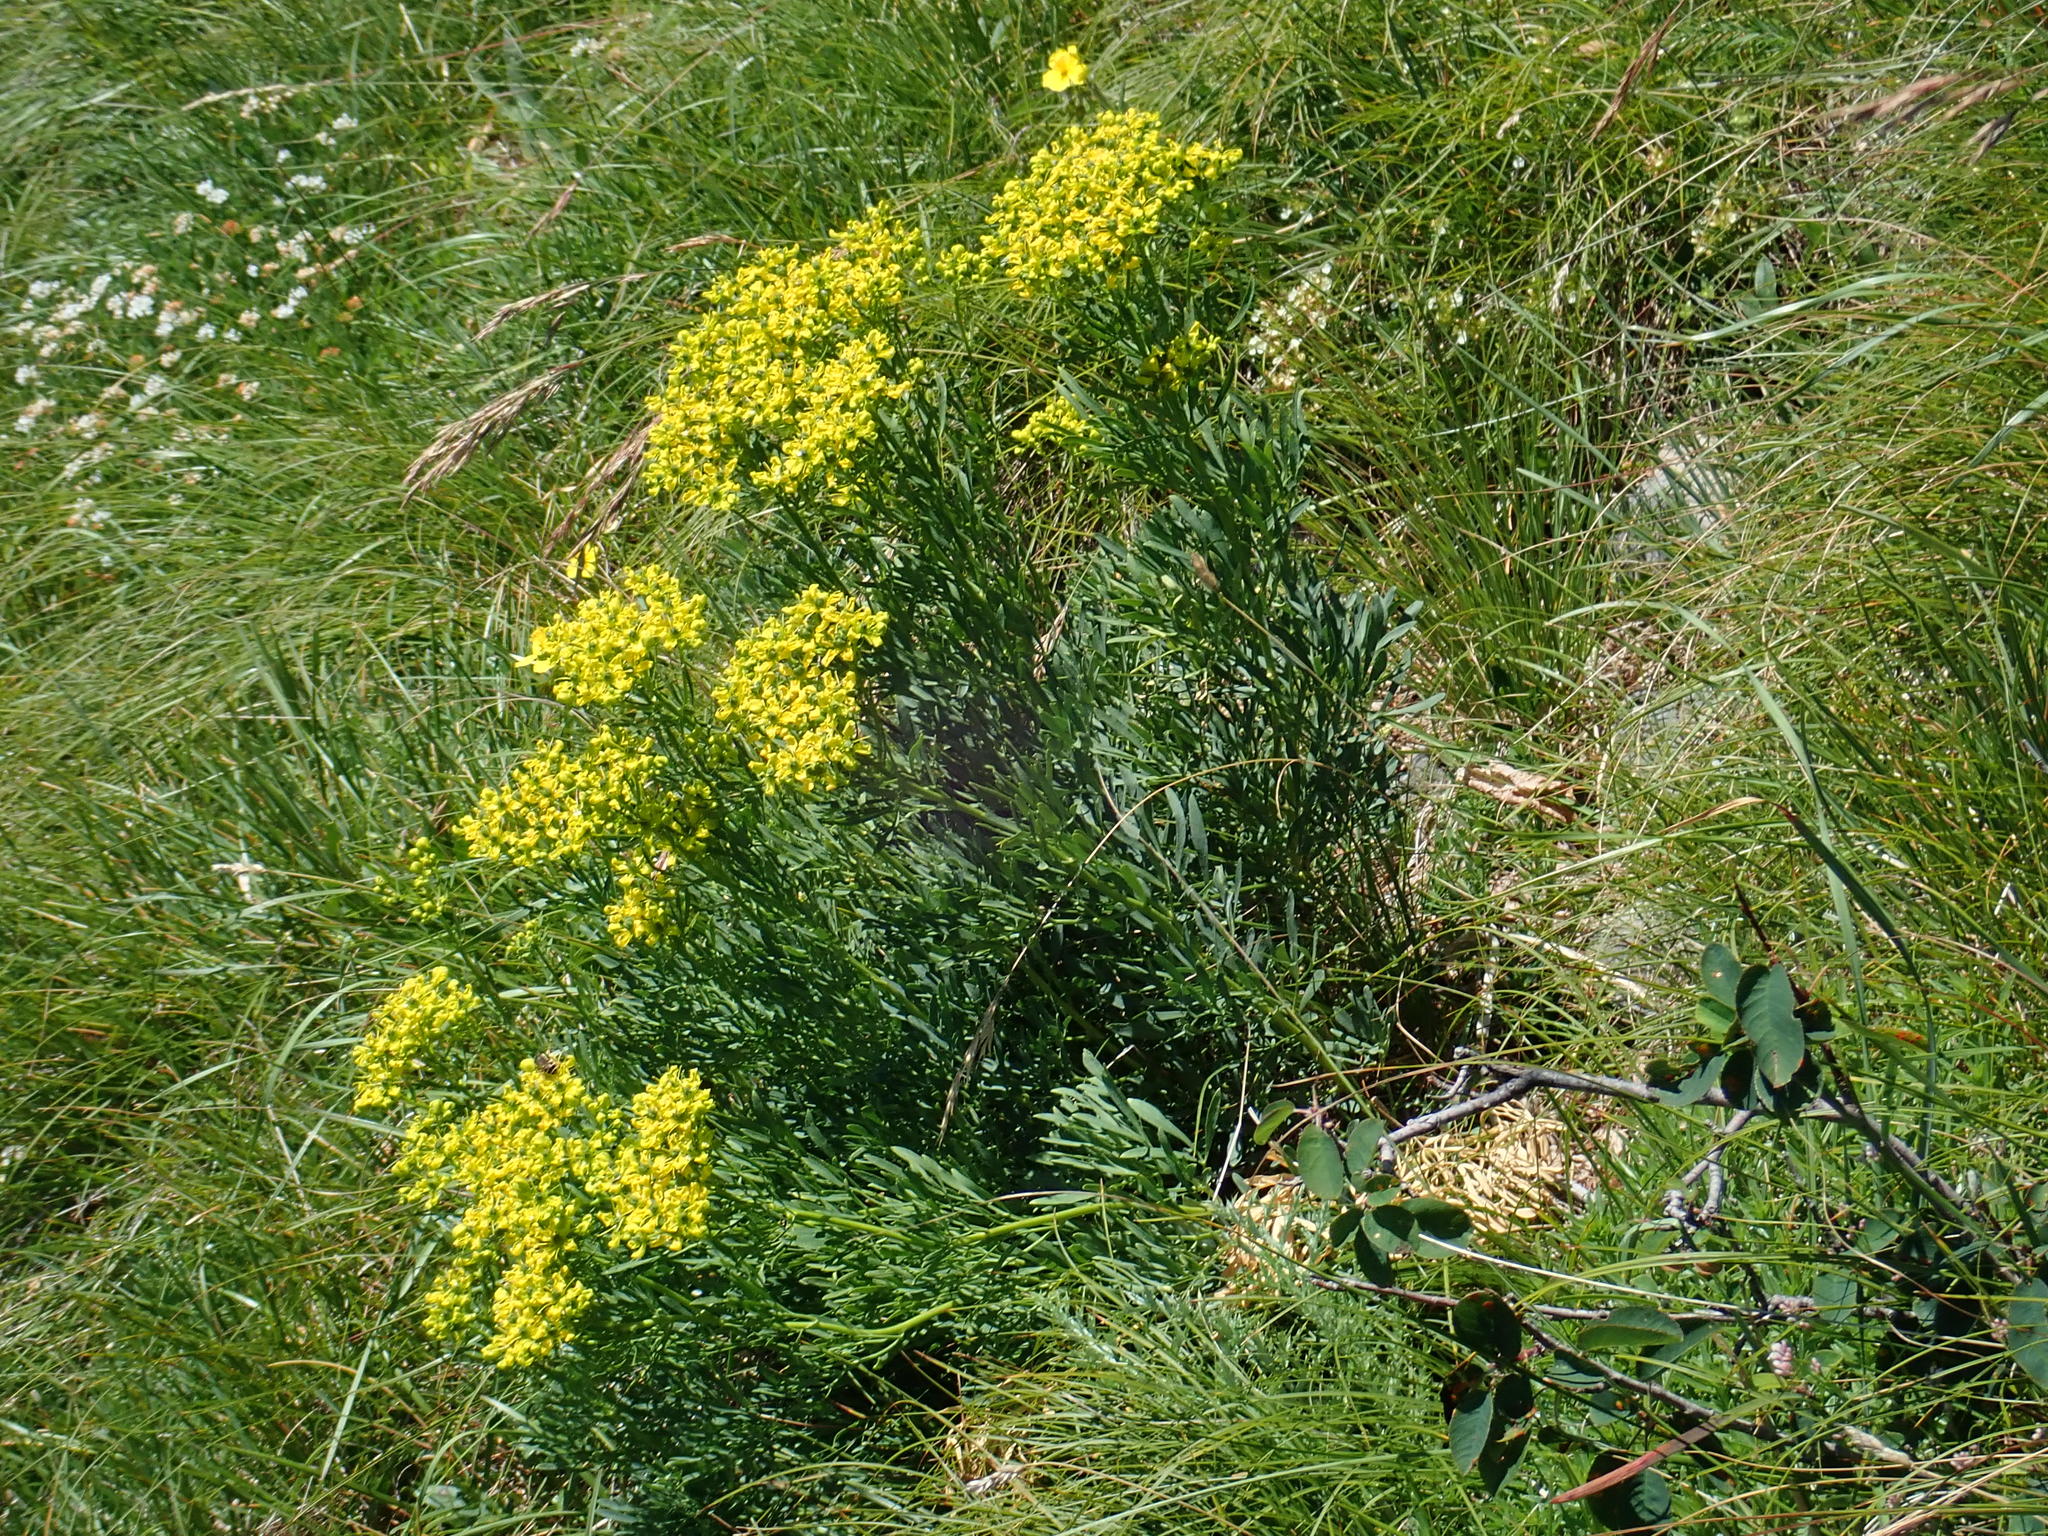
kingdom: Plantae
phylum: Tracheophyta
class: Magnoliopsida
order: Sapindales
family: Rutaceae
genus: Ruta
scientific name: Ruta
